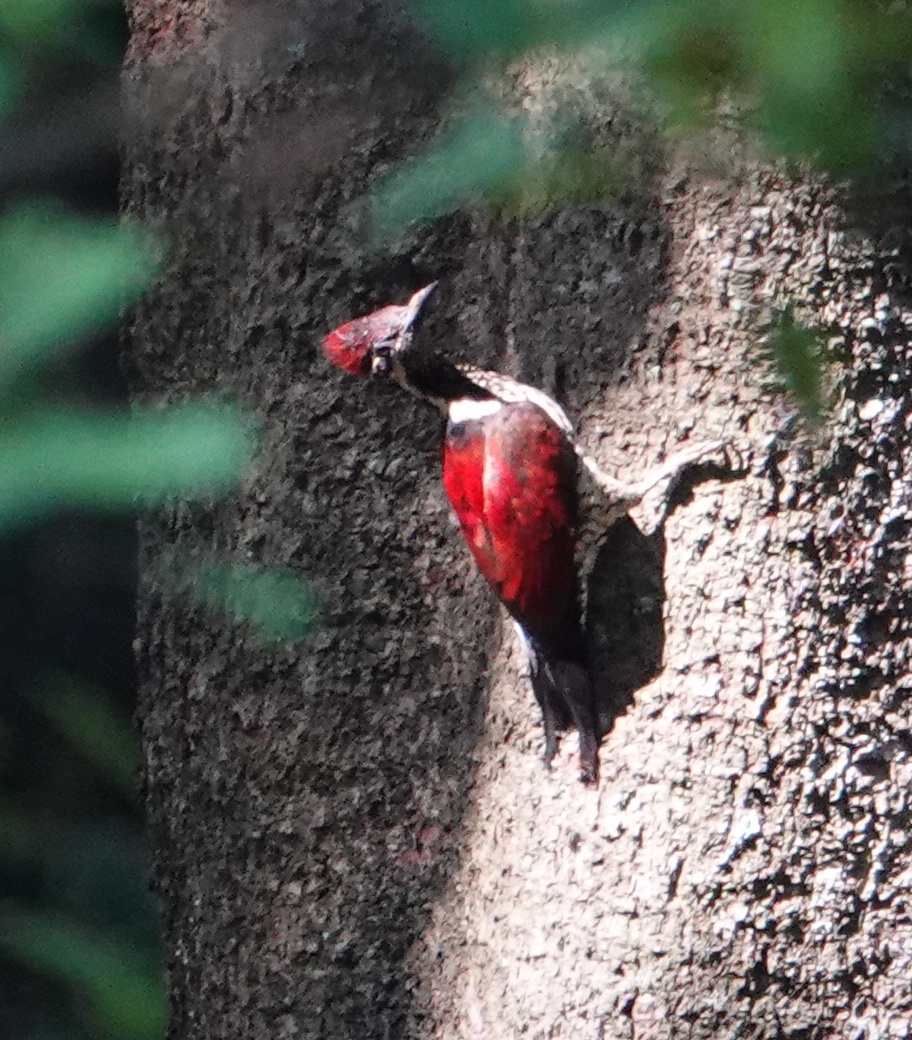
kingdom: Animalia
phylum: Chordata
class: Aves
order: Piciformes
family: Picidae
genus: Chrysocolaptes
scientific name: Chrysocolaptes stricklandi
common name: Crimson-backed flameback
